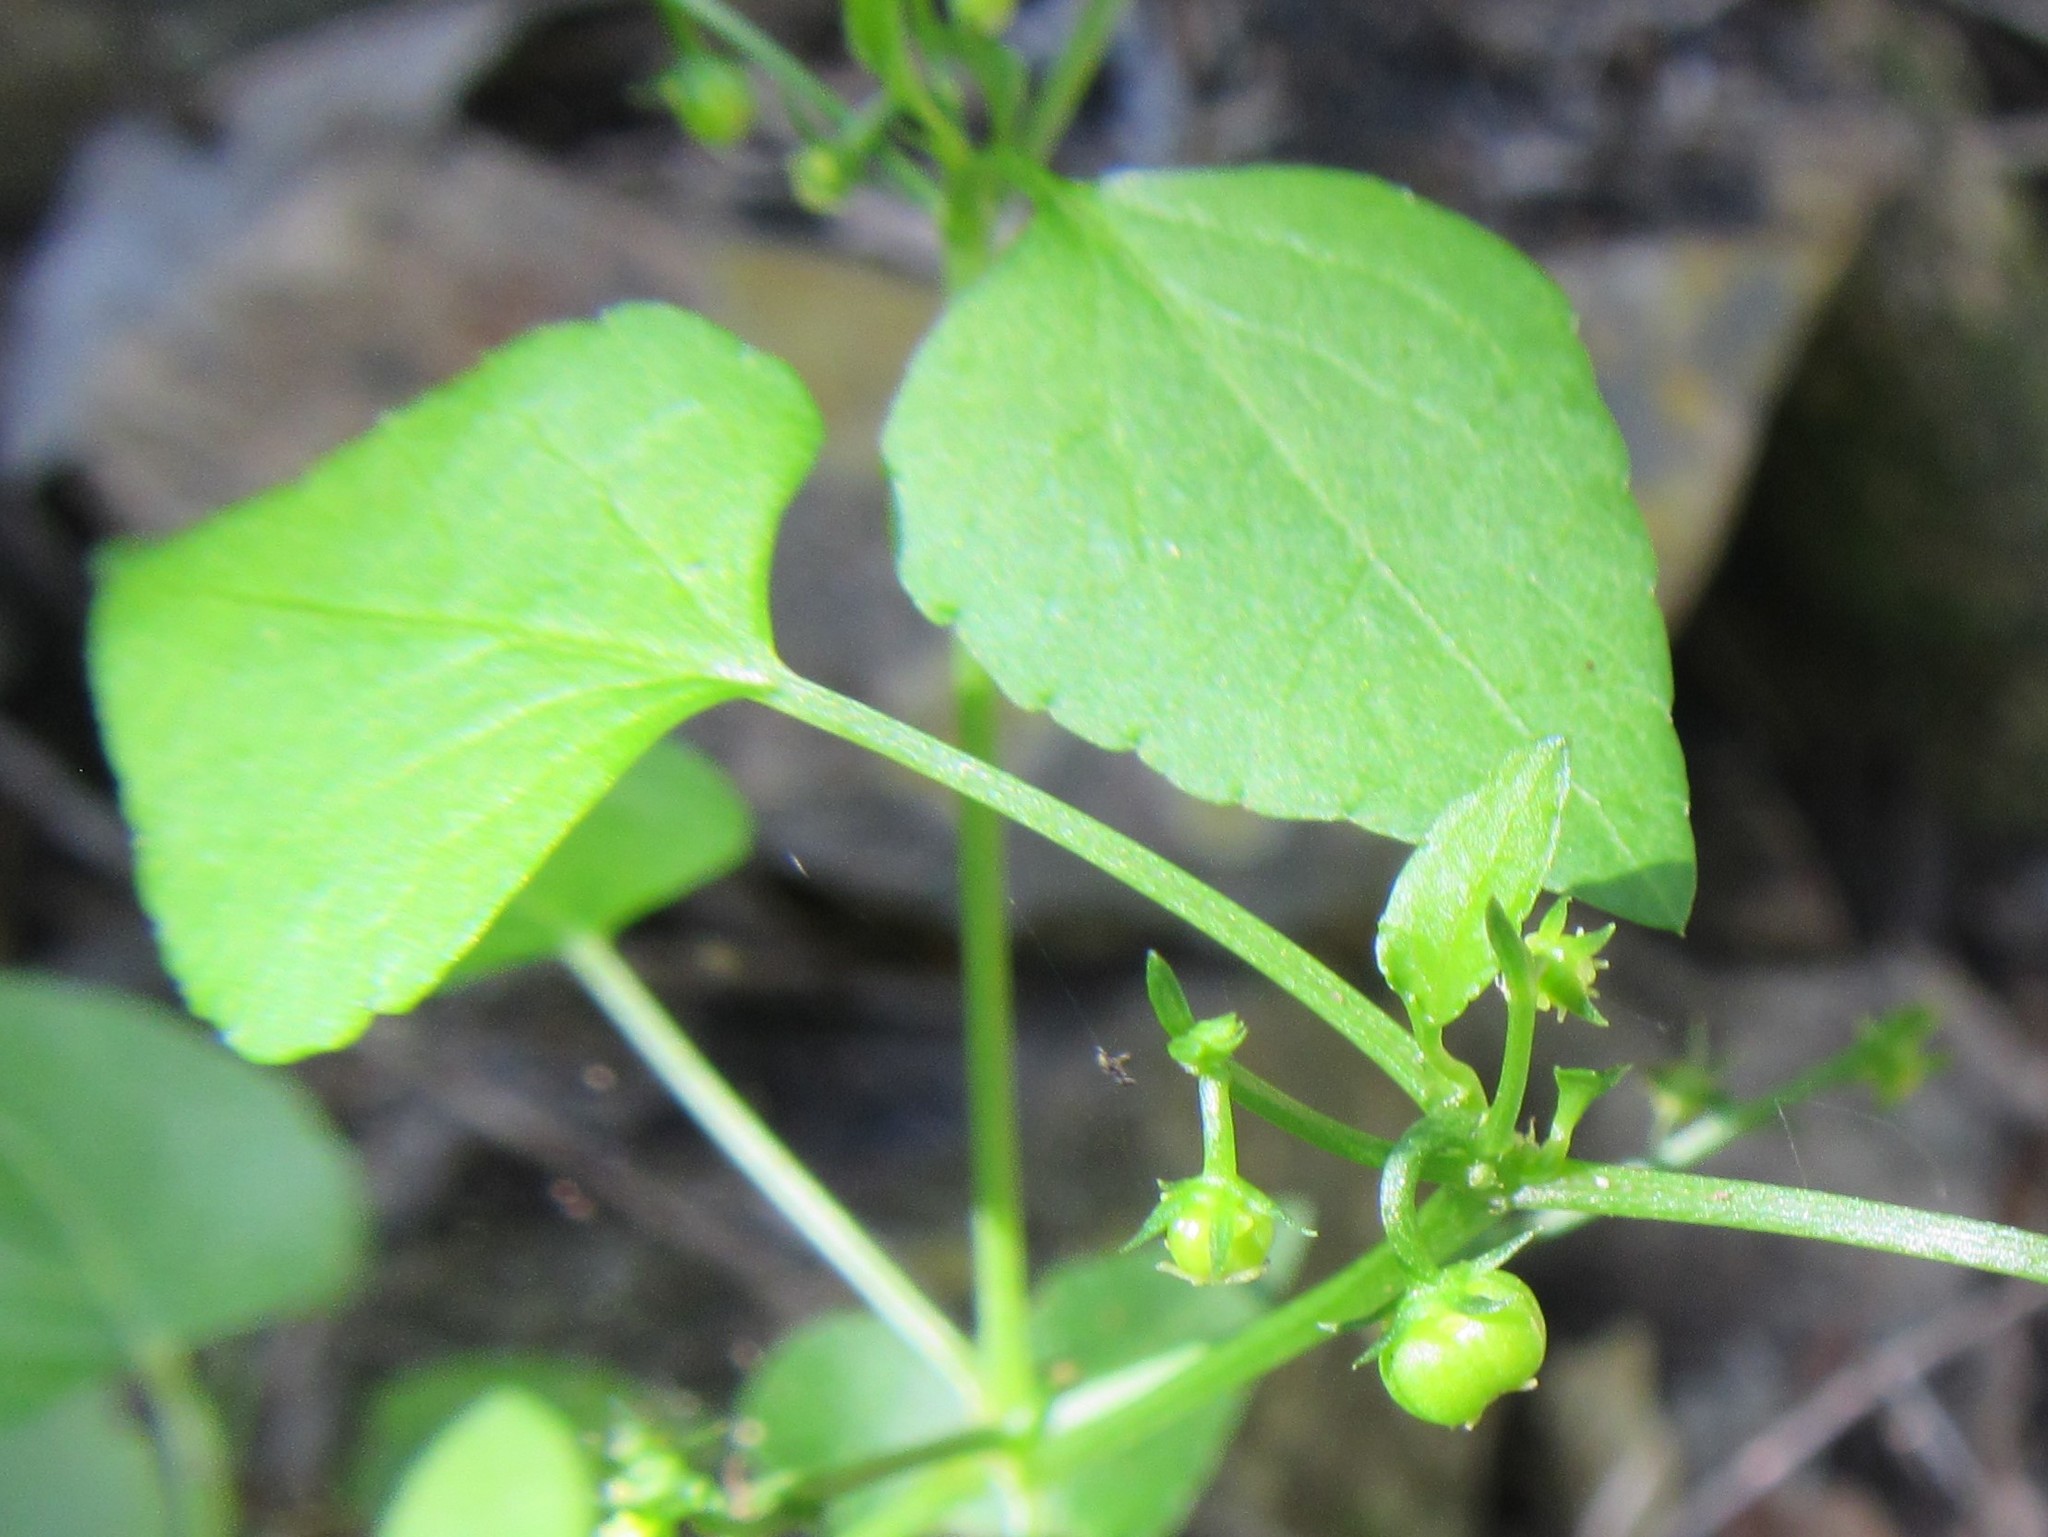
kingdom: Plantae
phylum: Tracheophyta
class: Magnoliopsida
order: Malpighiales
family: Euphorbiaceae
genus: Adenocline
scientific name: Adenocline acuta
